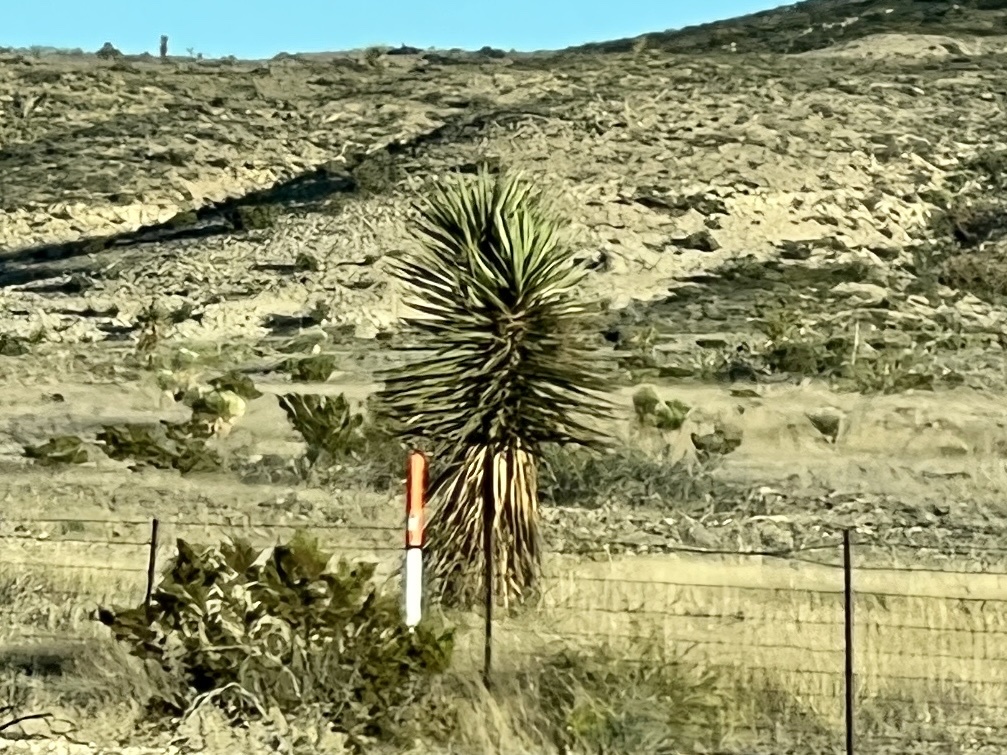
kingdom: Plantae
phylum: Tracheophyta
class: Liliopsida
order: Asparagales
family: Asparagaceae
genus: Yucca
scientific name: Yucca treculiana
